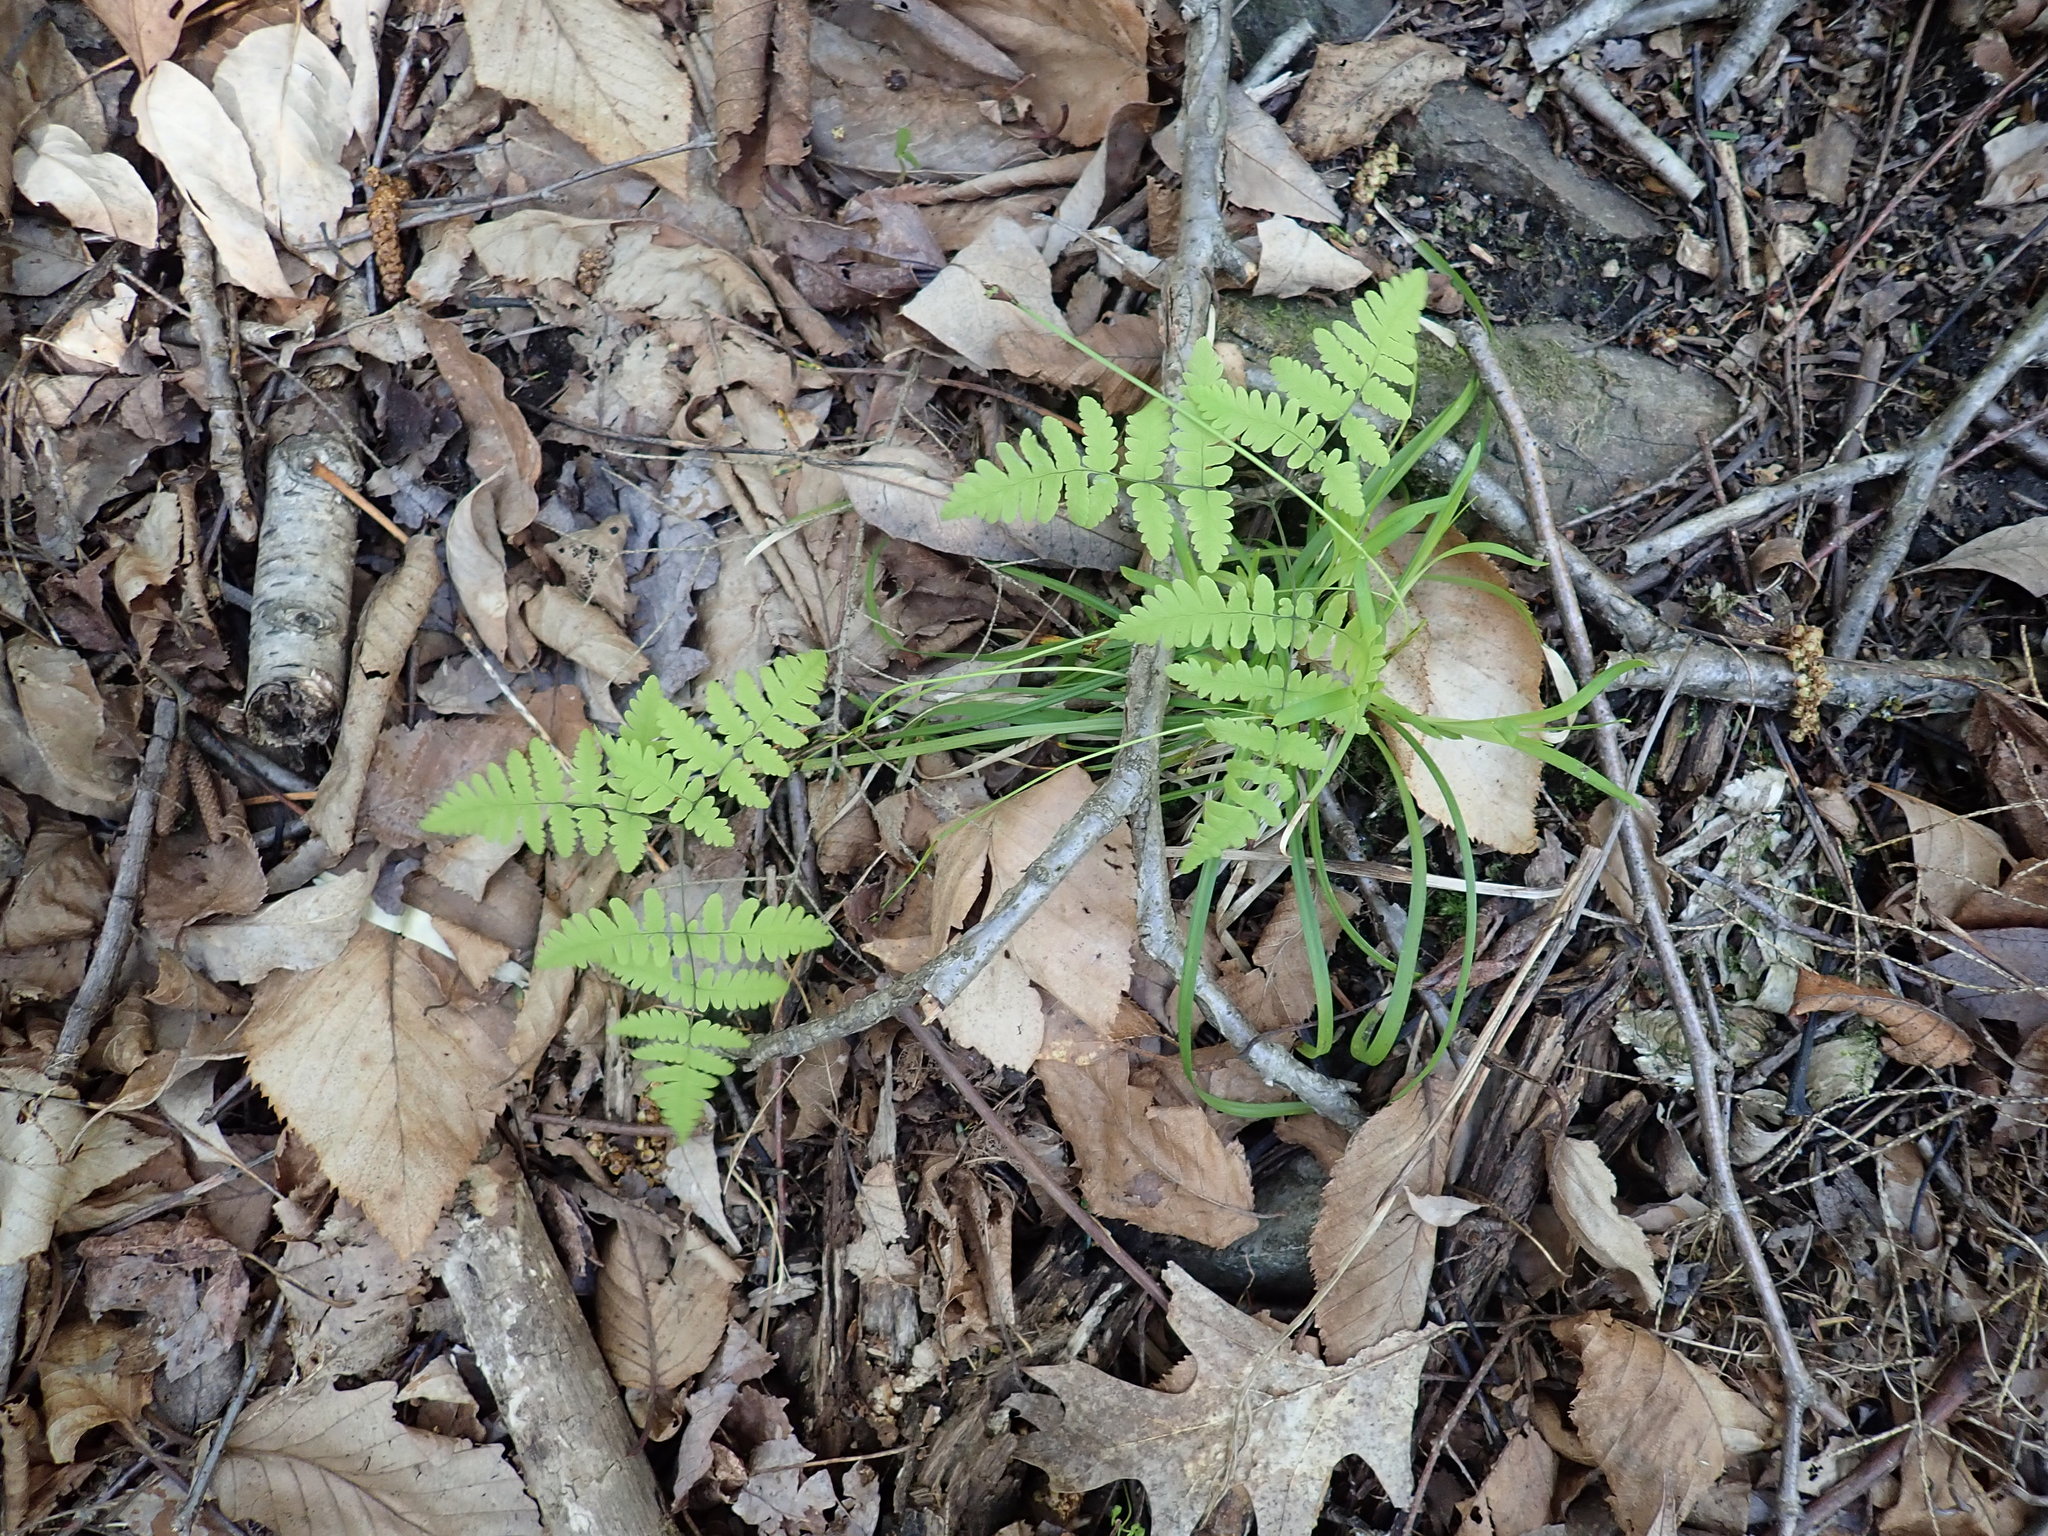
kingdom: Plantae
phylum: Tracheophyta
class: Polypodiopsida
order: Polypodiales
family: Cystopteridaceae
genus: Gymnocarpium
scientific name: Gymnocarpium dryopteris
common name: Oak fern
